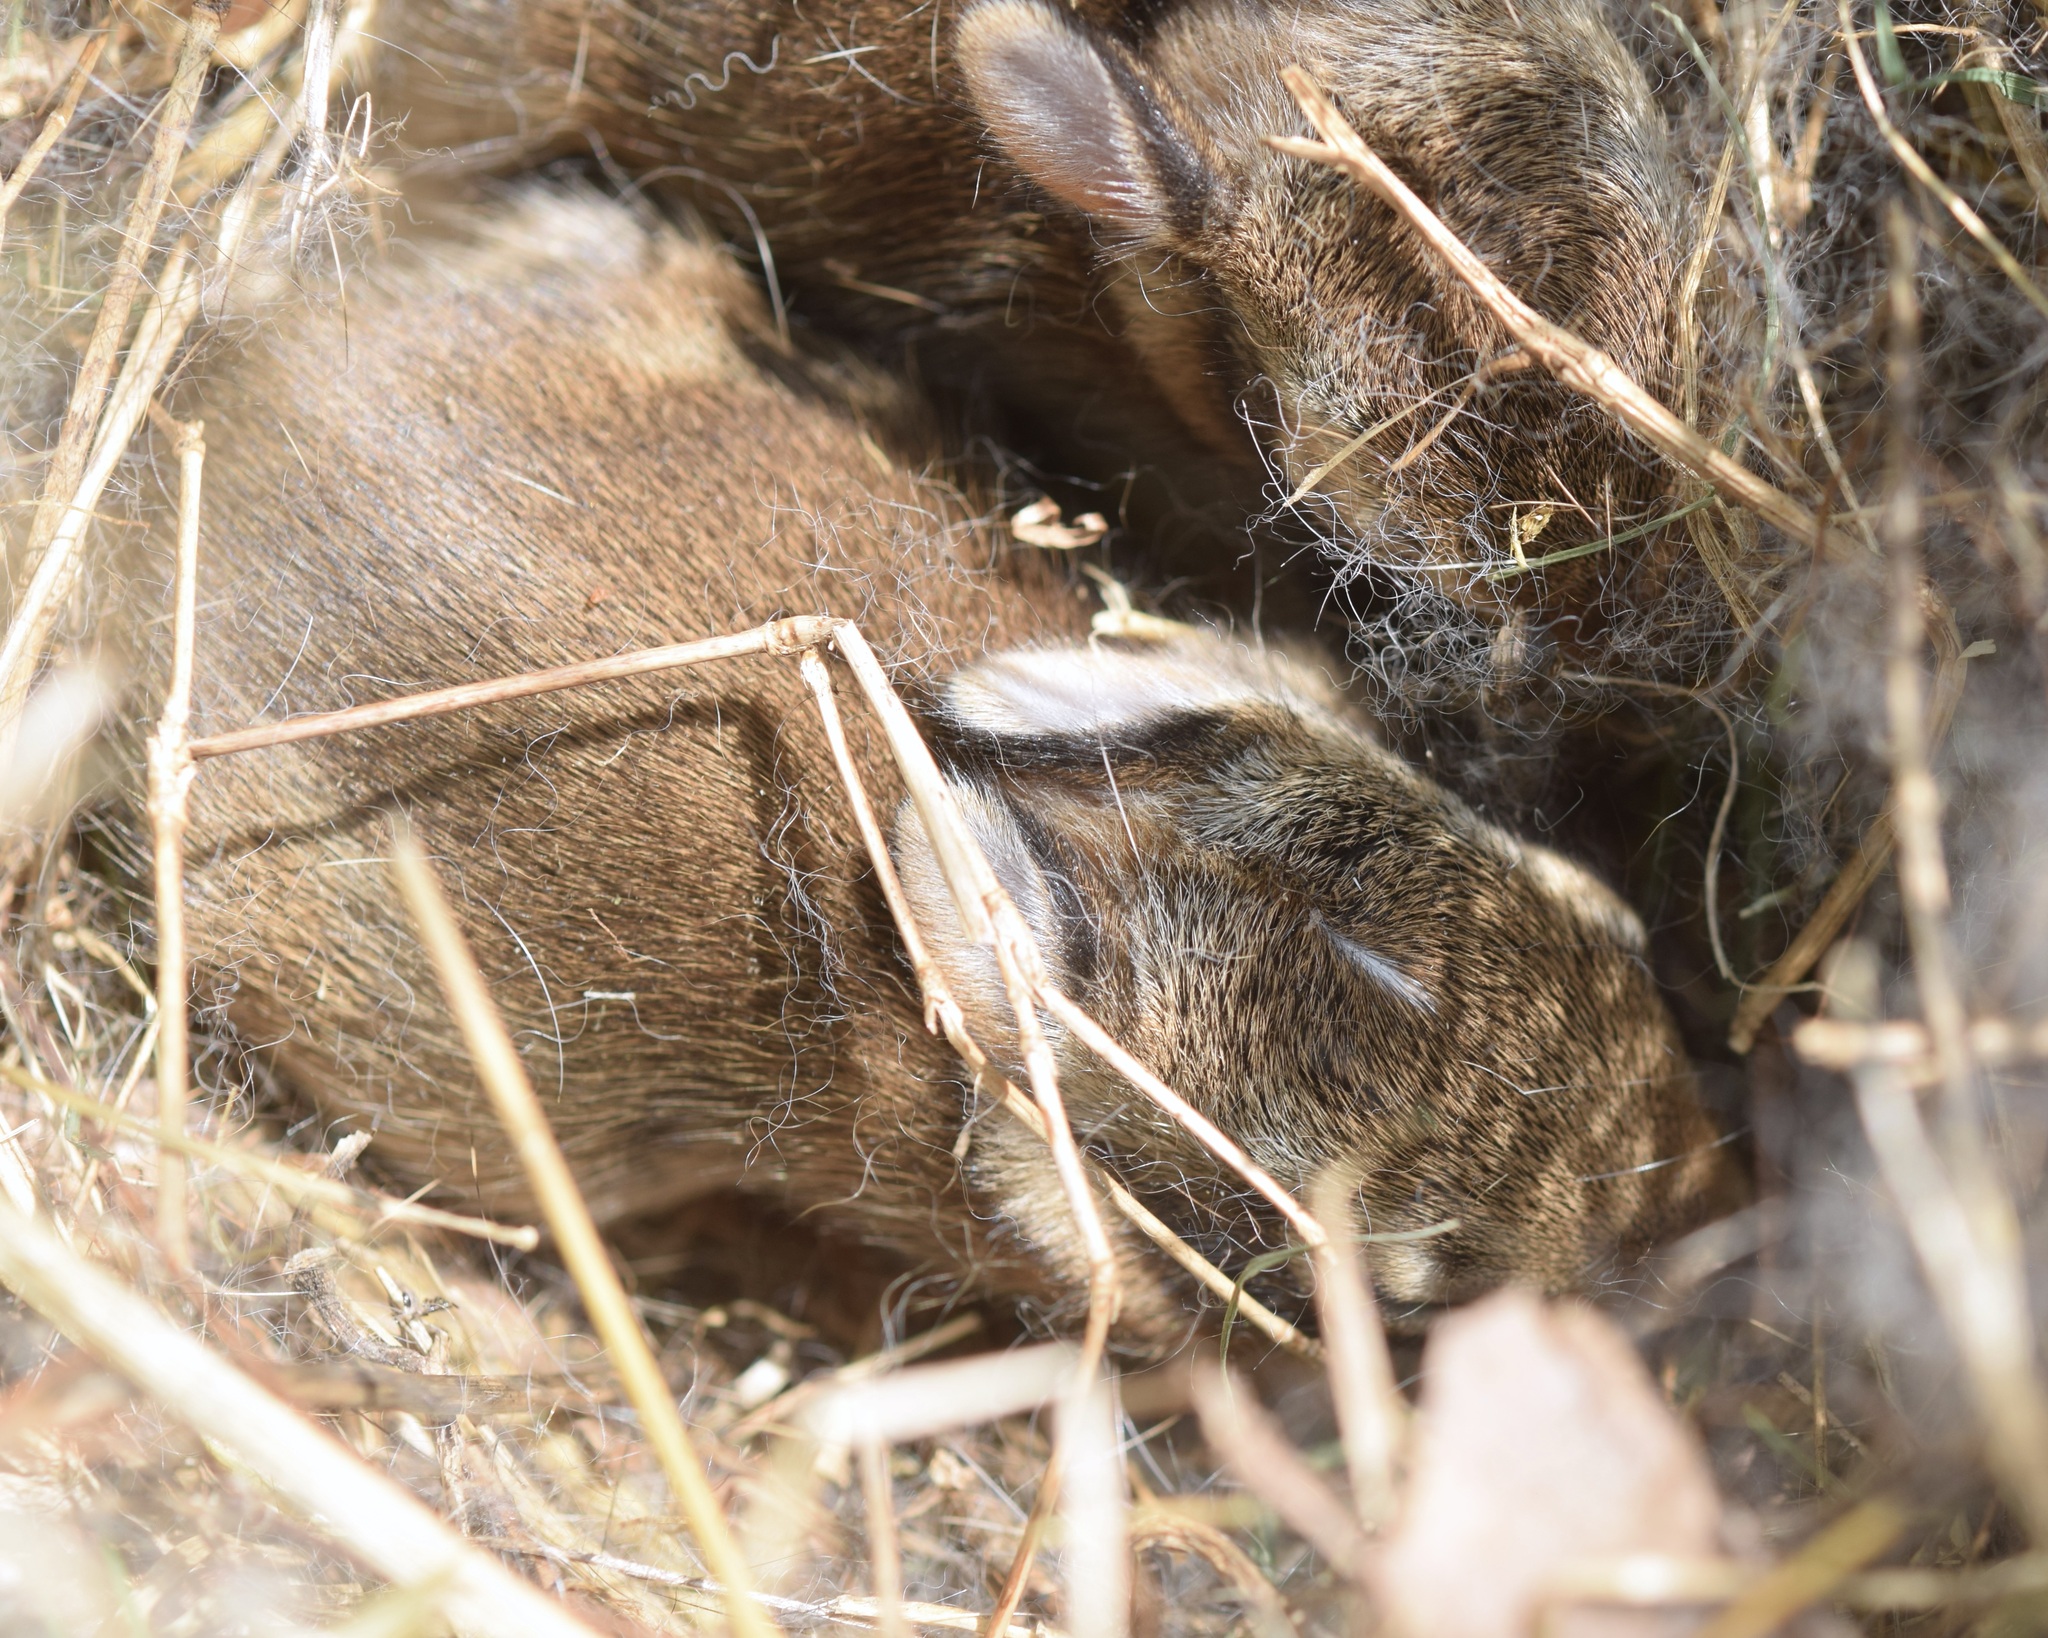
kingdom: Animalia
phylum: Chordata
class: Mammalia
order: Lagomorpha
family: Leporidae
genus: Sylvilagus
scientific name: Sylvilagus floridanus
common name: Eastern cottontail
